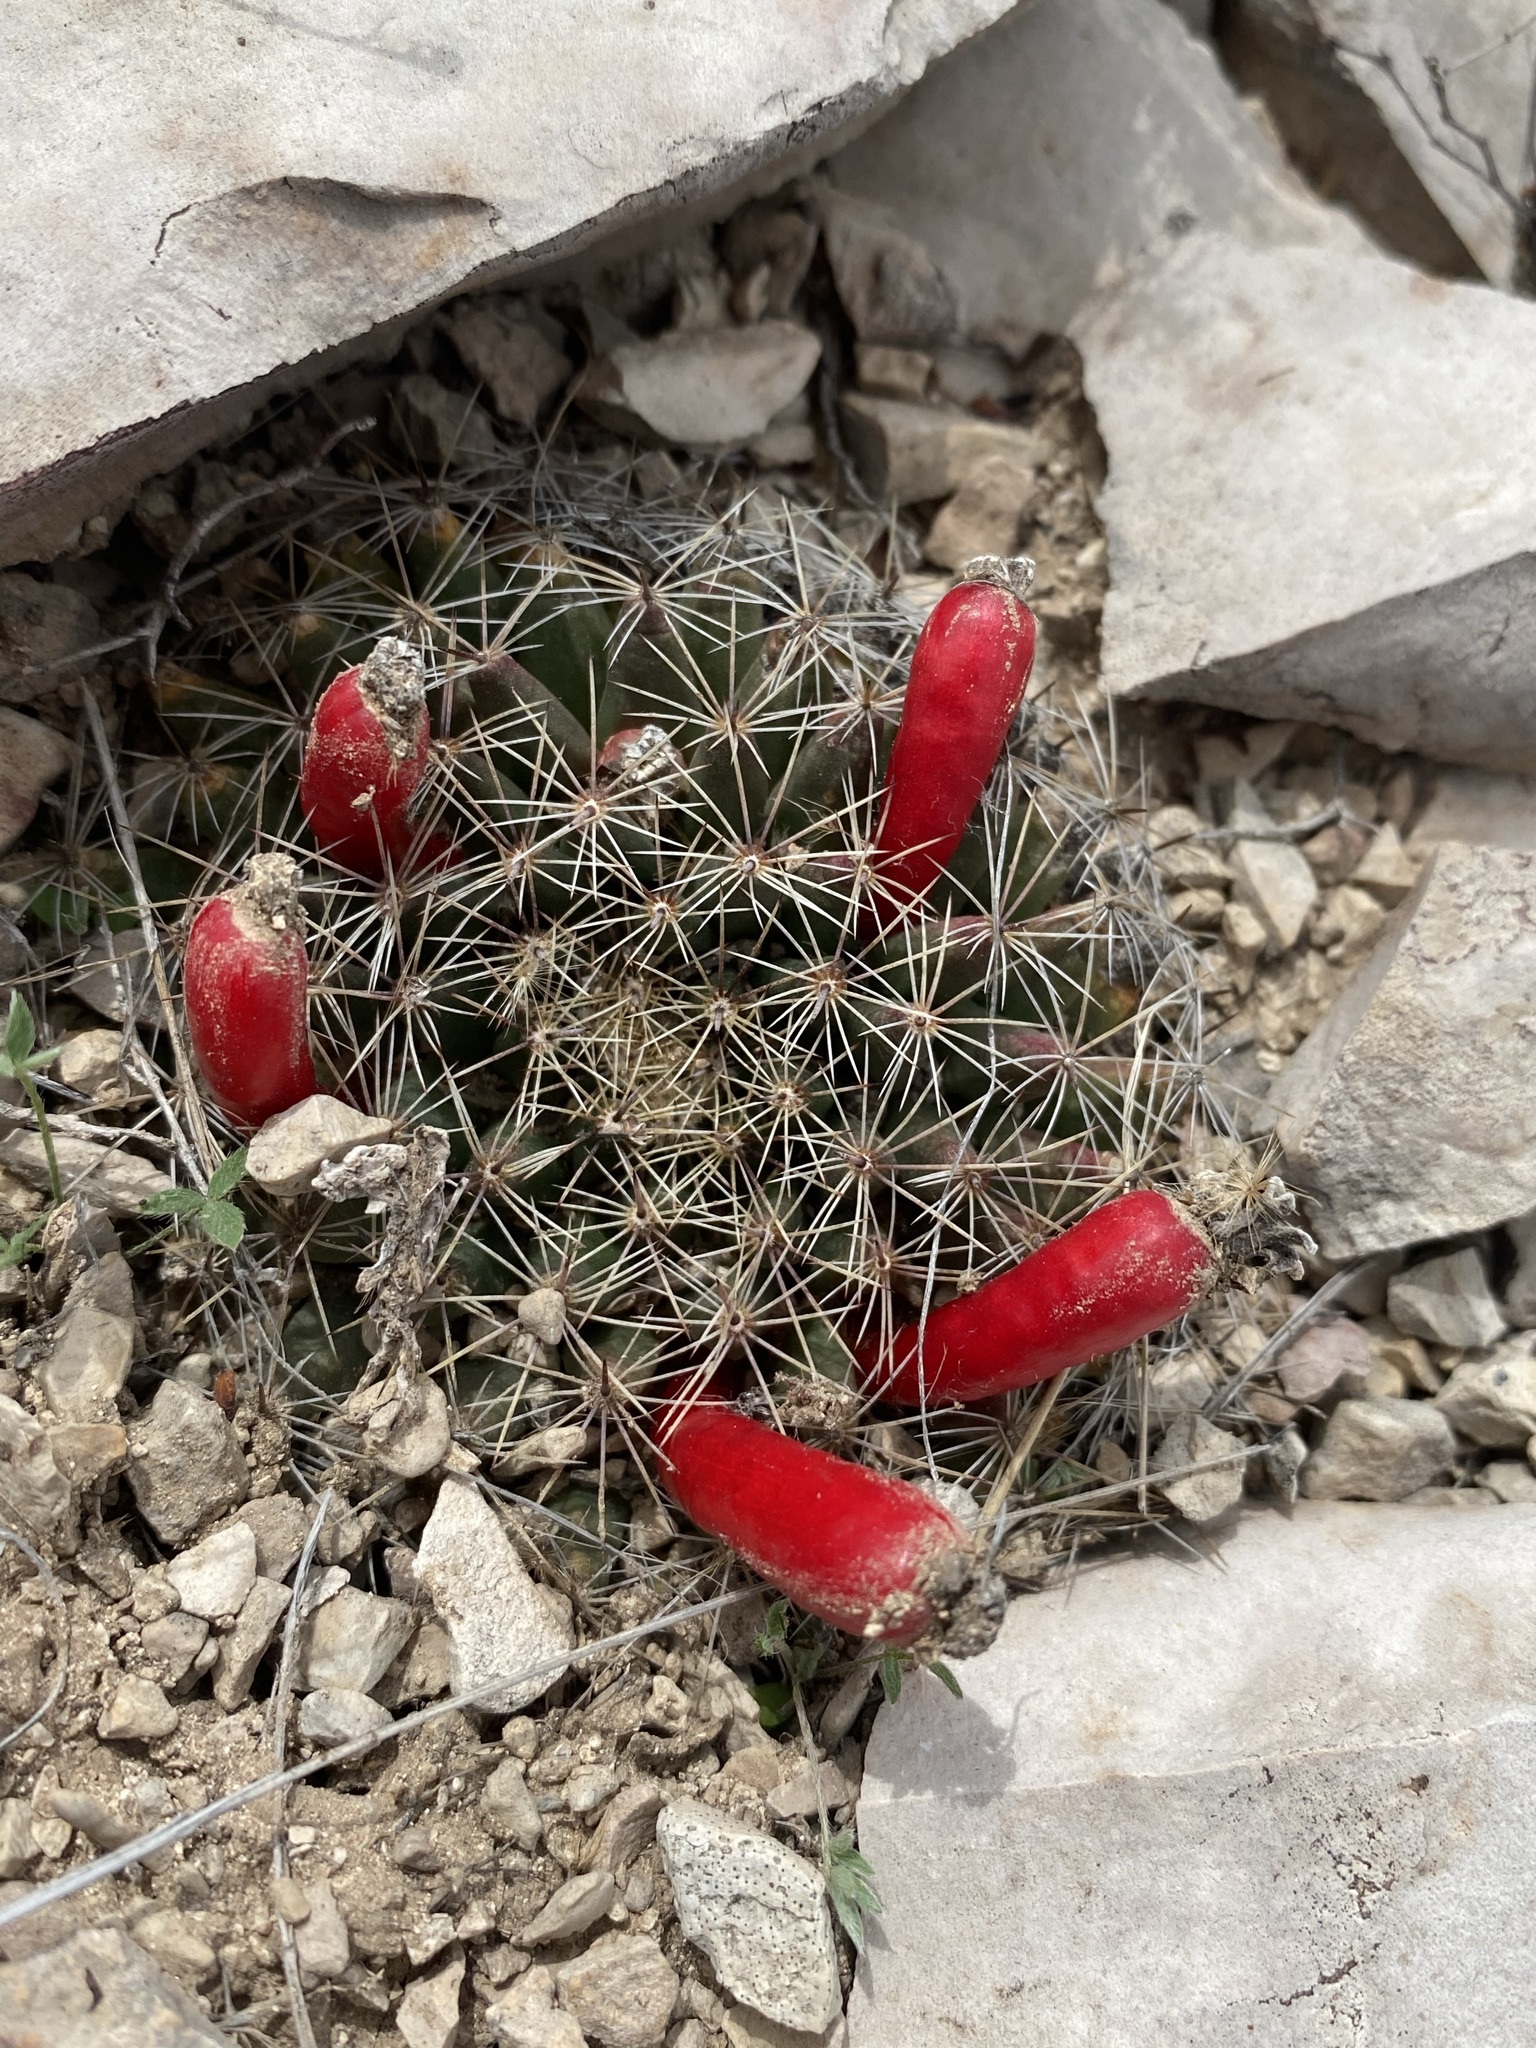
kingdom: Plantae
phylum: Tracheophyta
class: Magnoliopsida
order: Caryophyllales
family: Cactaceae
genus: Mammillaria
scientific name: Mammillaria heyderi
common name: Little nipple cactus
